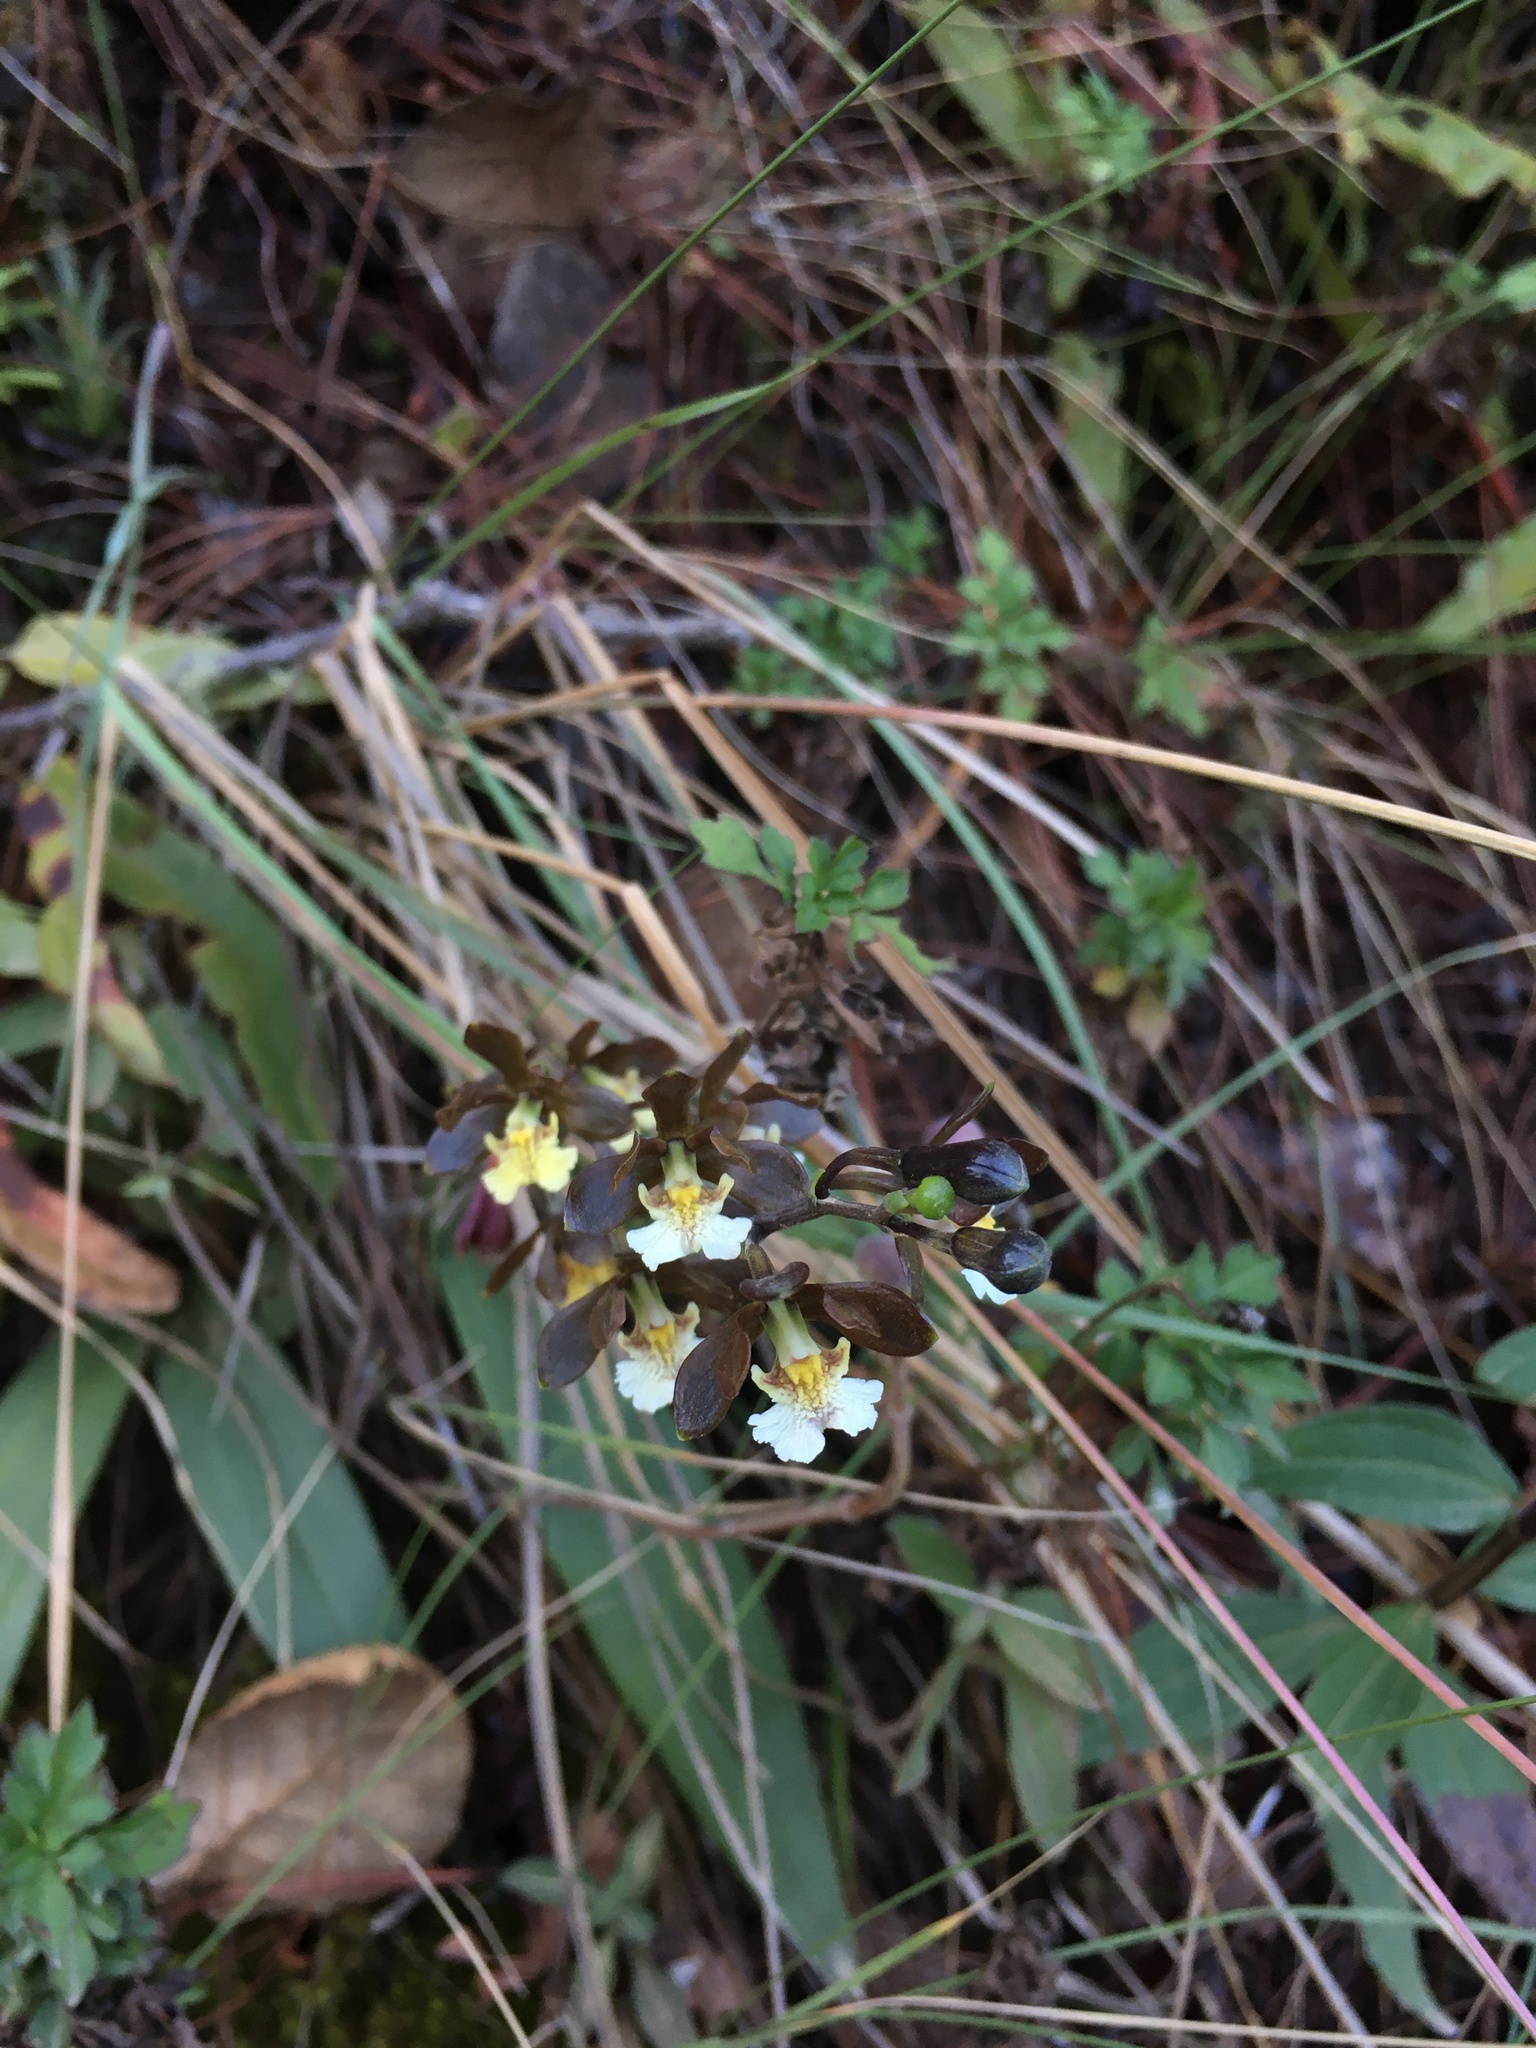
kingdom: Plantae
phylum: Tracheophyta
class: Liliopsida
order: Asparagales
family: Orchidaceae
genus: Prosthechea
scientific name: Prosthechea varicosa
